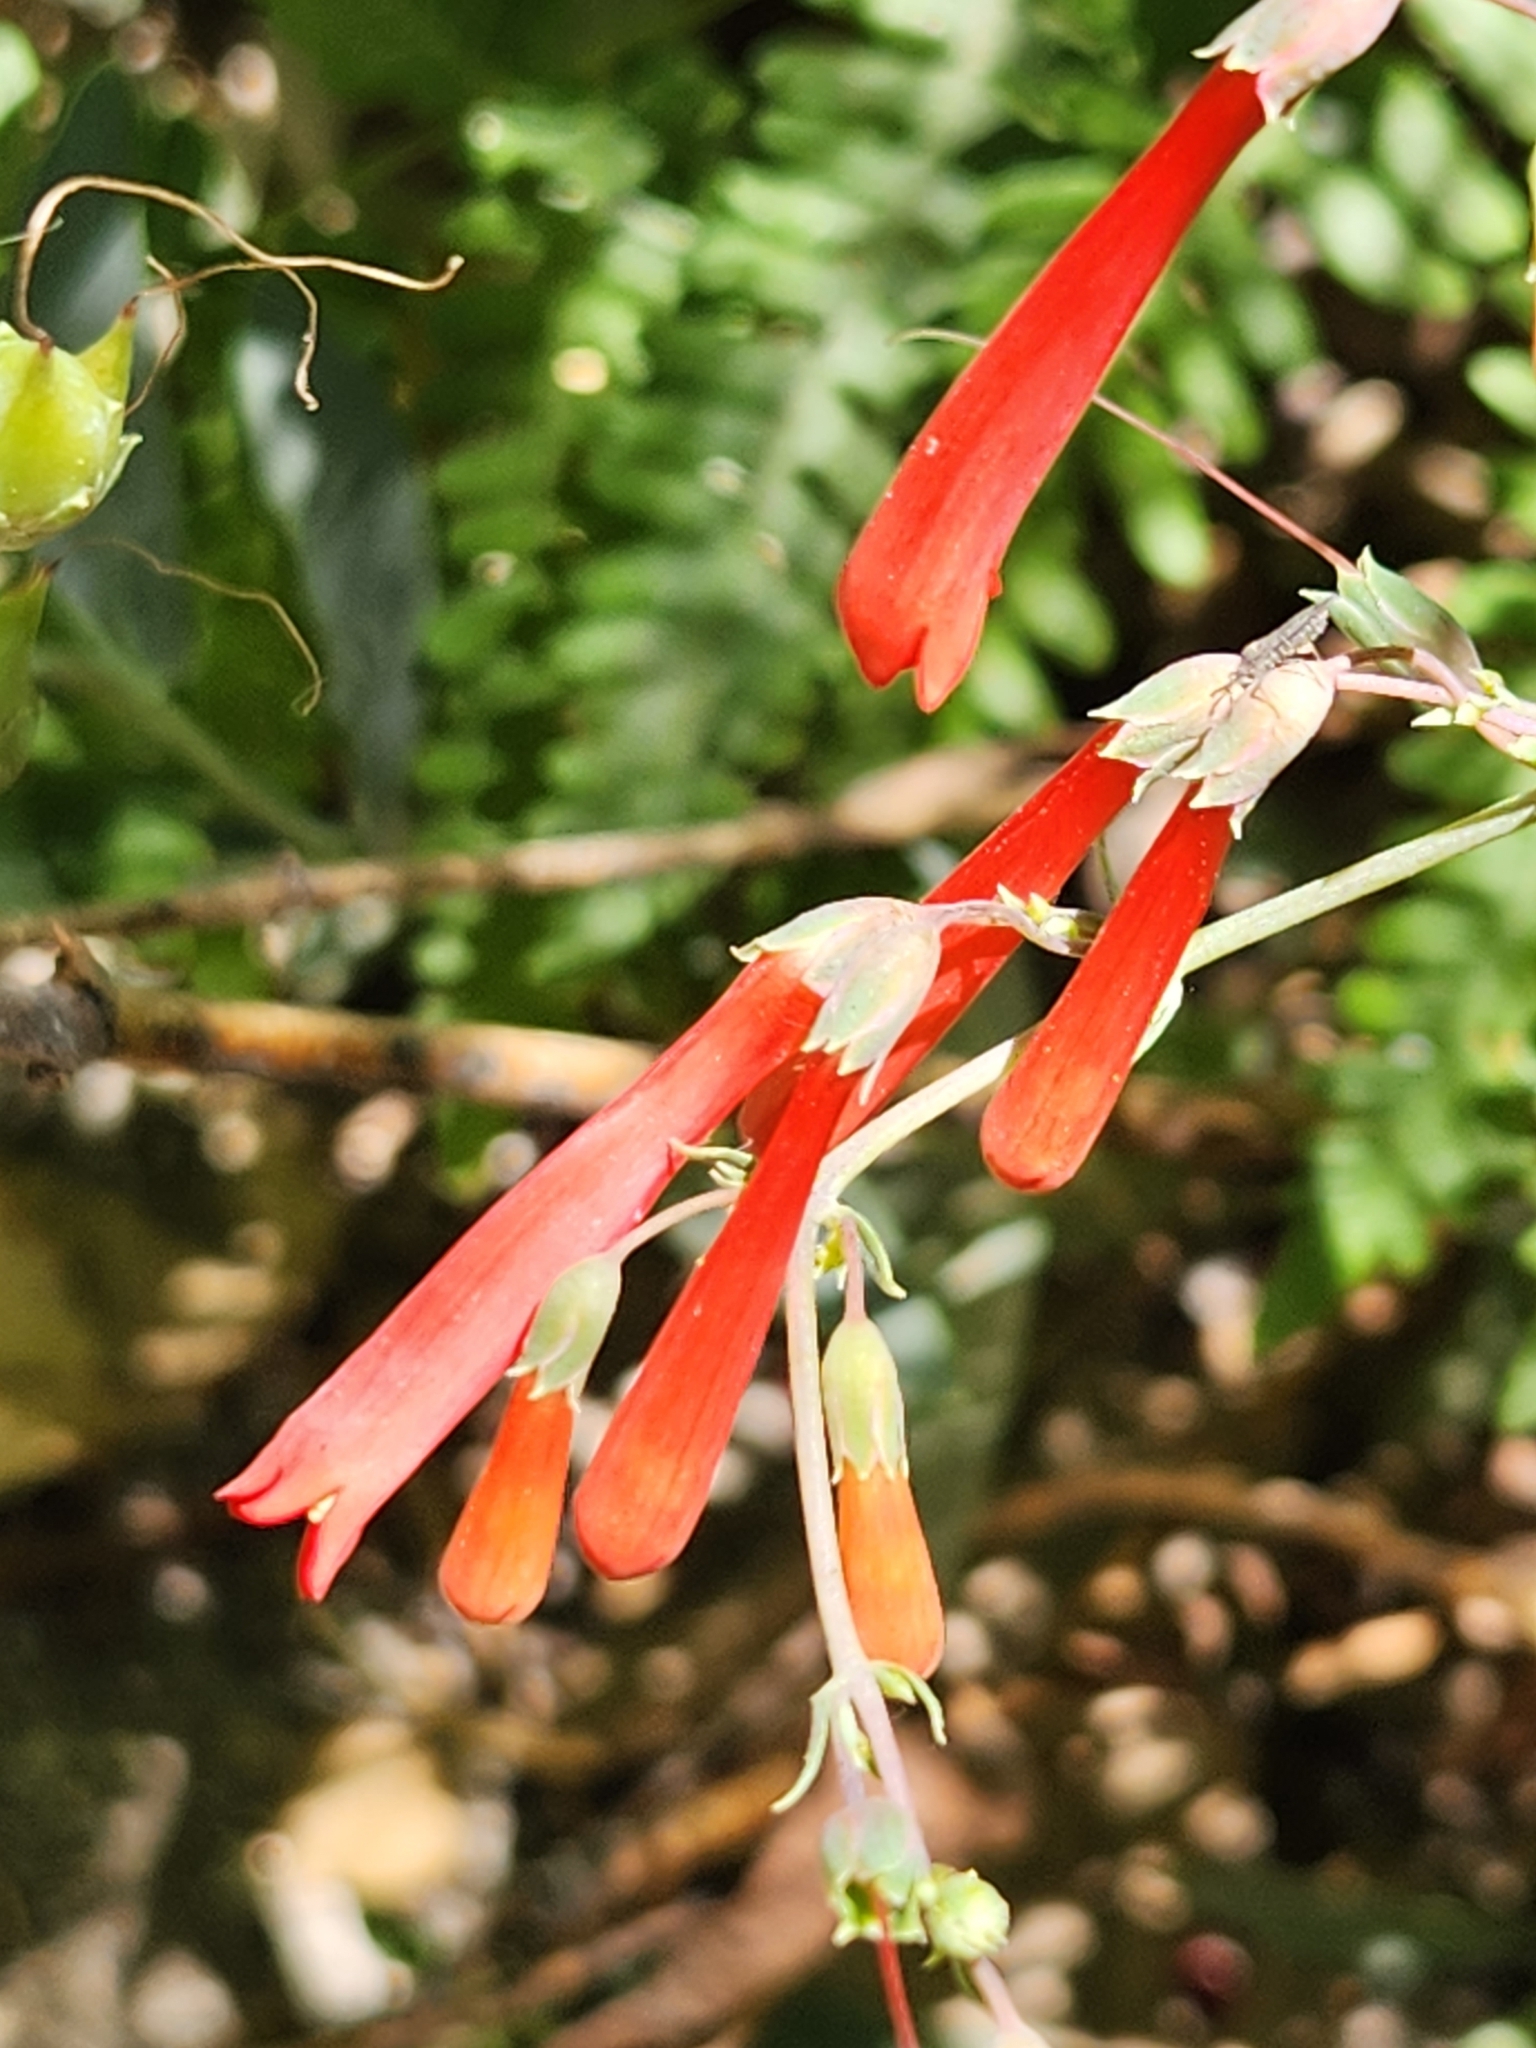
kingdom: Plantae
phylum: Tracheophyta
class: Magnoliopsida
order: Lamiales
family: Plantaginaceae
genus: Penstemon
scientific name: Penstemon centranthifolius
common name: Scarlet bugler
